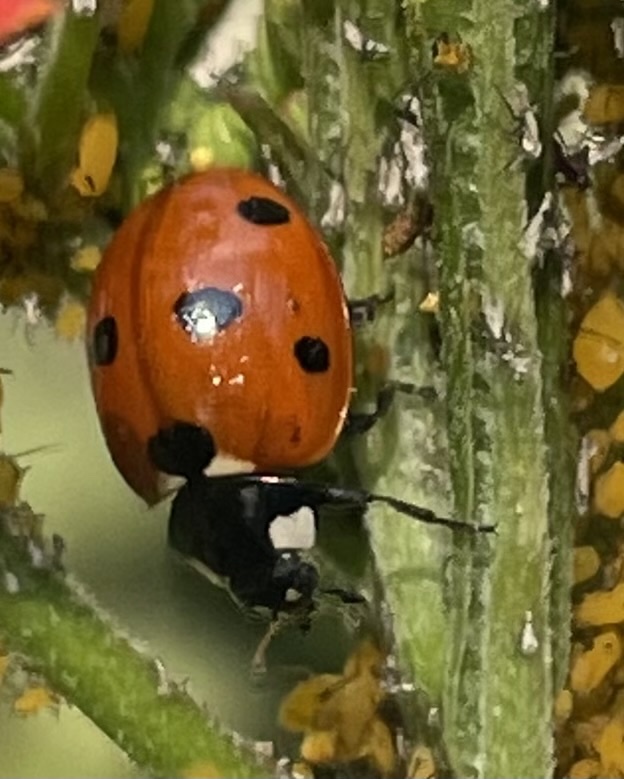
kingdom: Animalia
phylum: Arthropoda
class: Insecta
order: Coleoptera
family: Coccinellidae
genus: Coccinella
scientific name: Coccinella septempunctata
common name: Sevenspotted lady beetle
